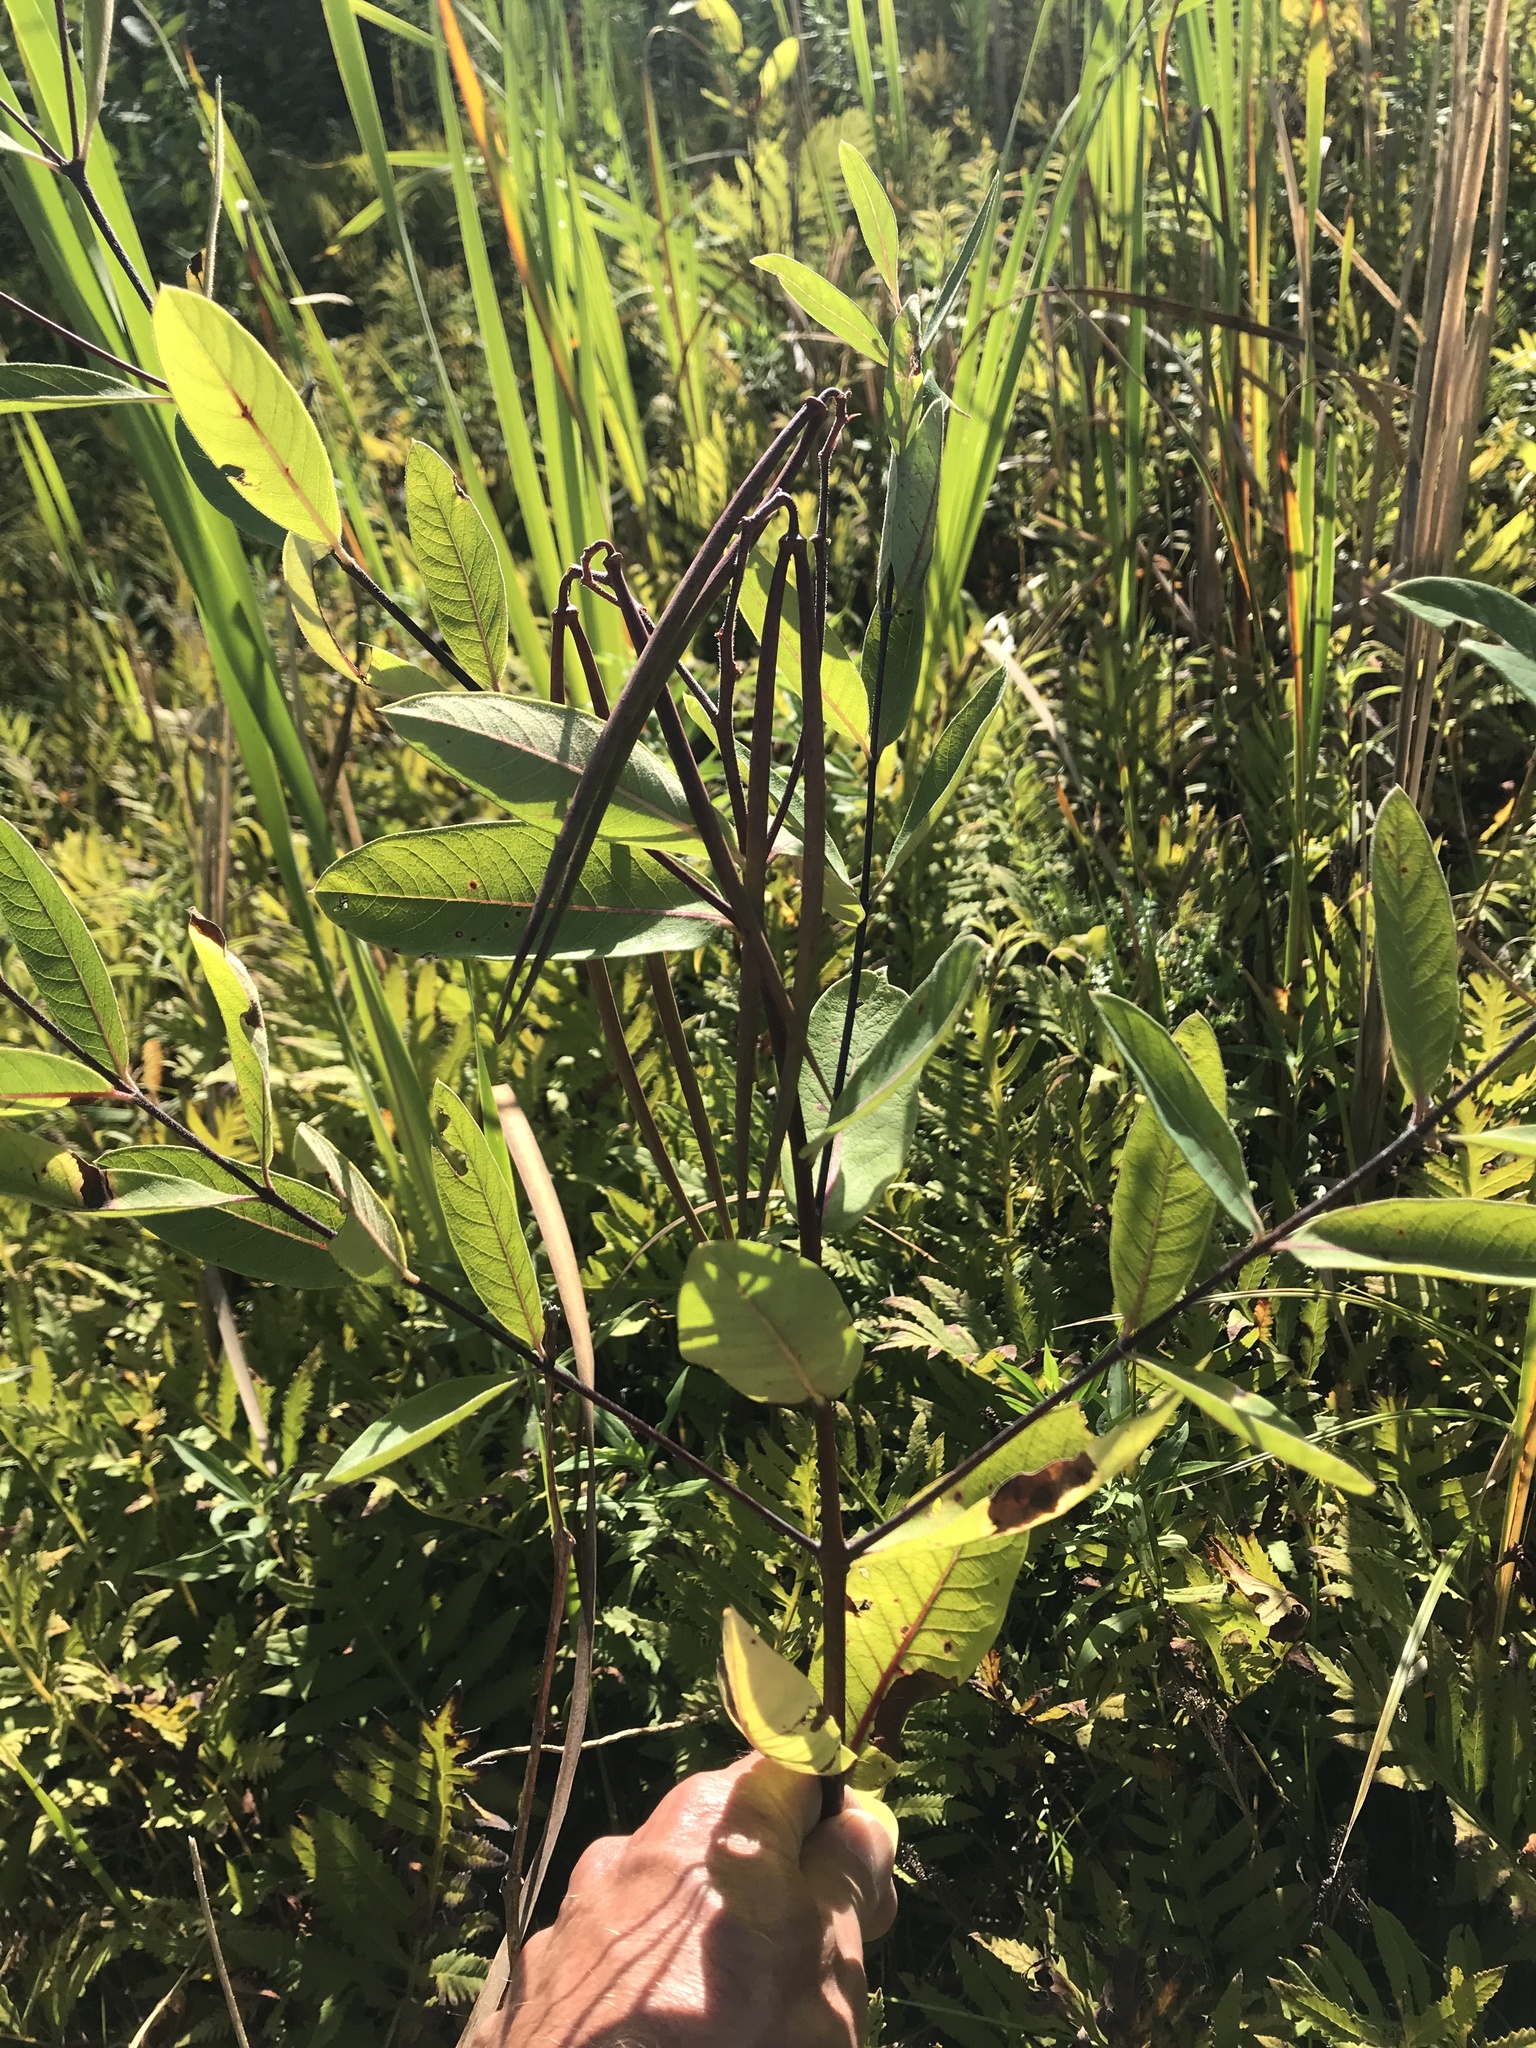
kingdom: Plantae
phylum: Tracheophyta
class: Magnoliopsida
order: Gentianales
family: Apocynaceae
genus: Apocynum
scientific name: Apocynum cannabinum
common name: Hemp dogbane
